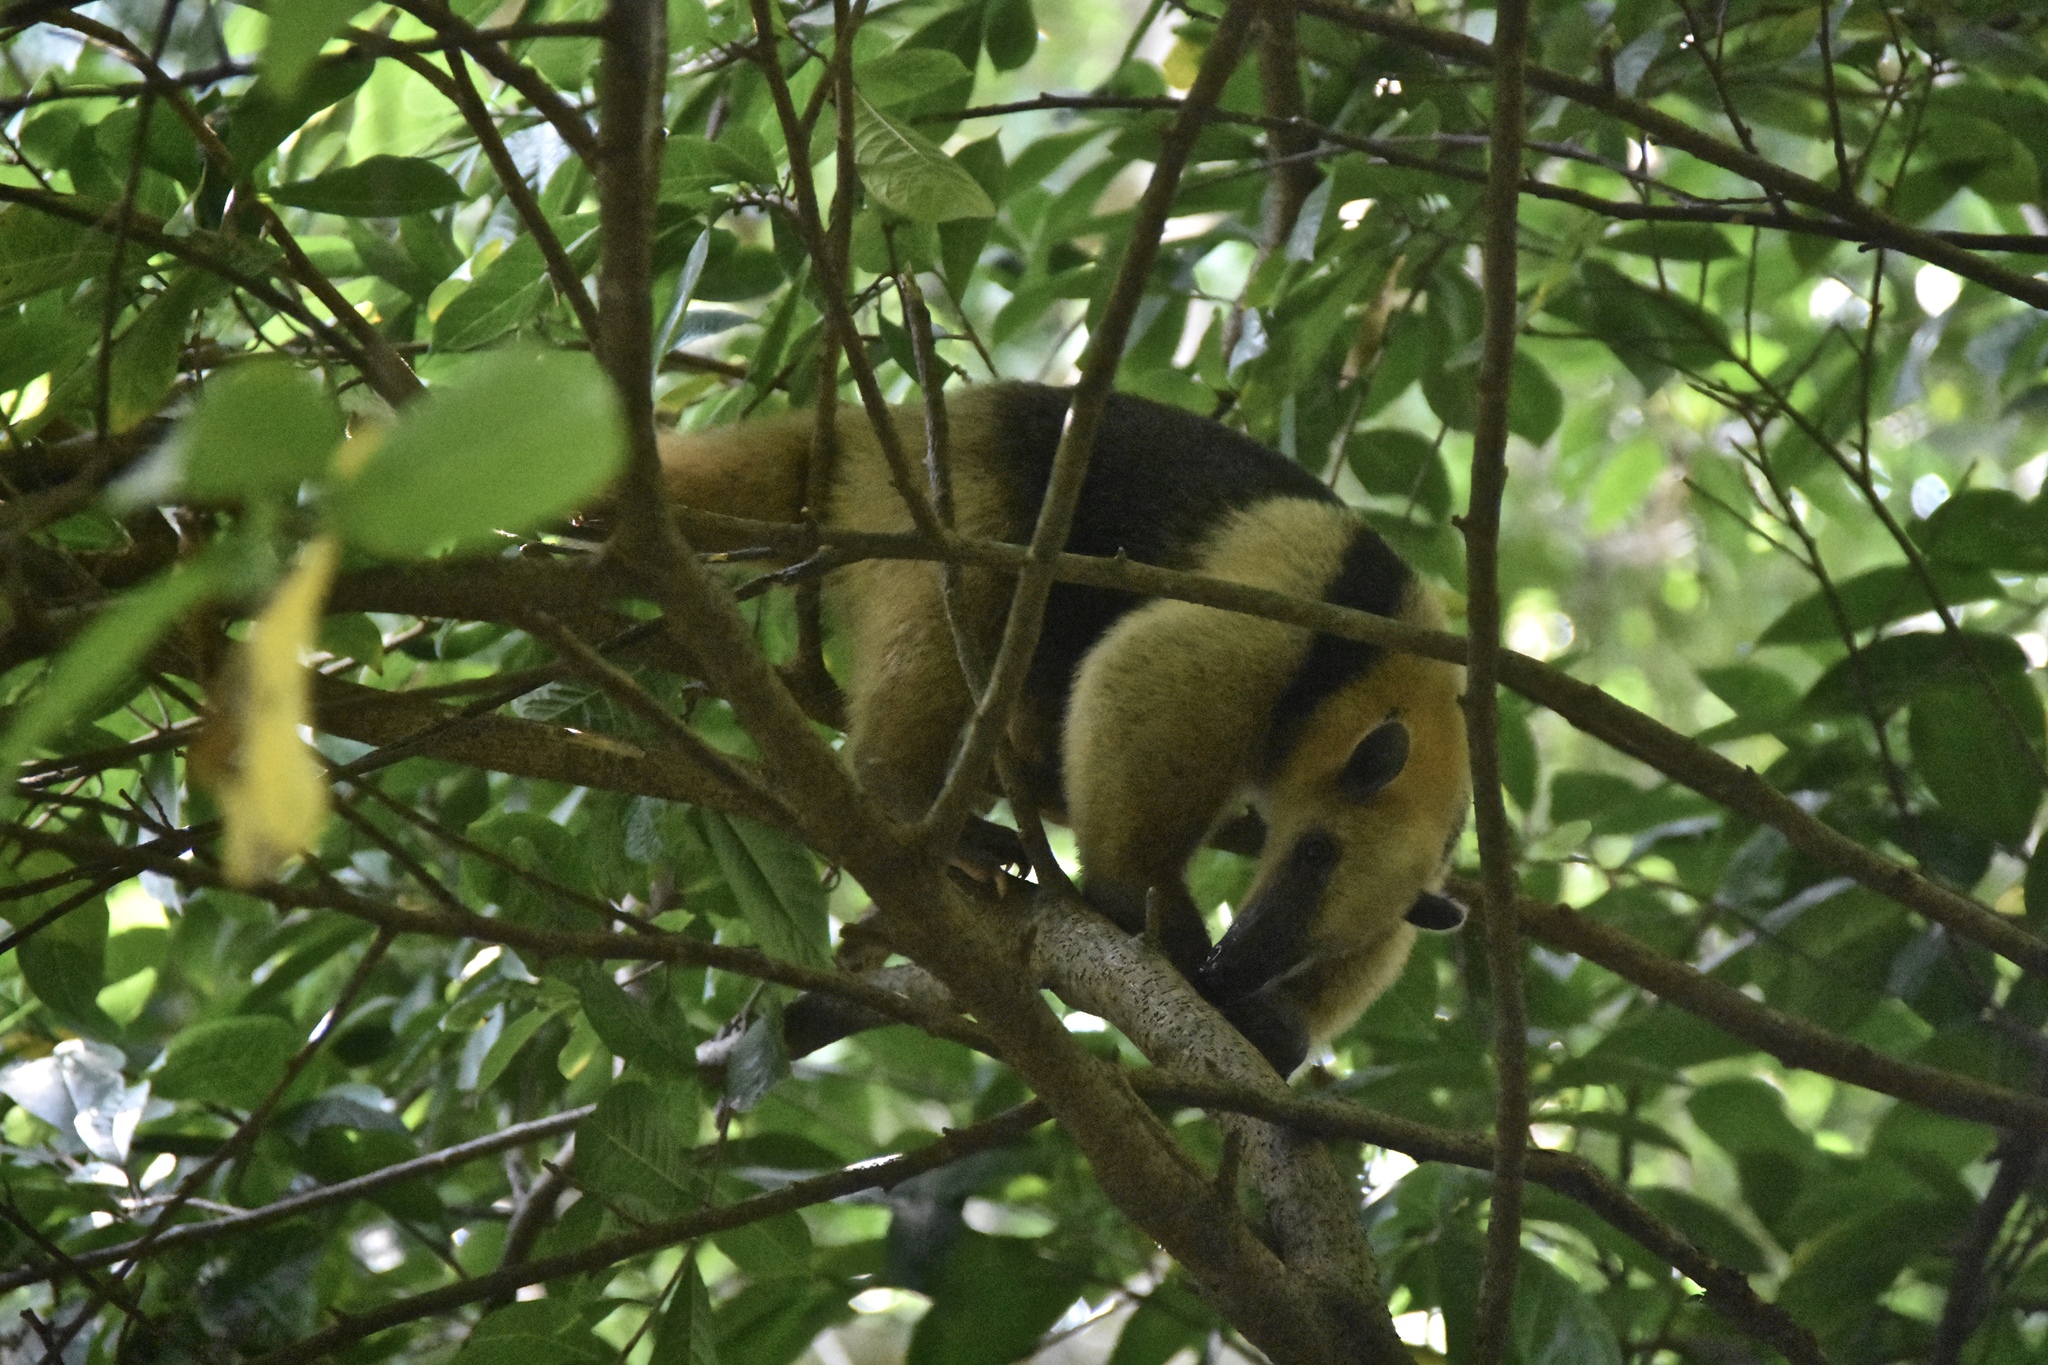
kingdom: Animalia
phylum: Chordata
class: Mammalia
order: Pilosa
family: Myrmecophagidae
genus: Tamandua
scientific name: Tamandua mexicana
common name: Northern tamandua
